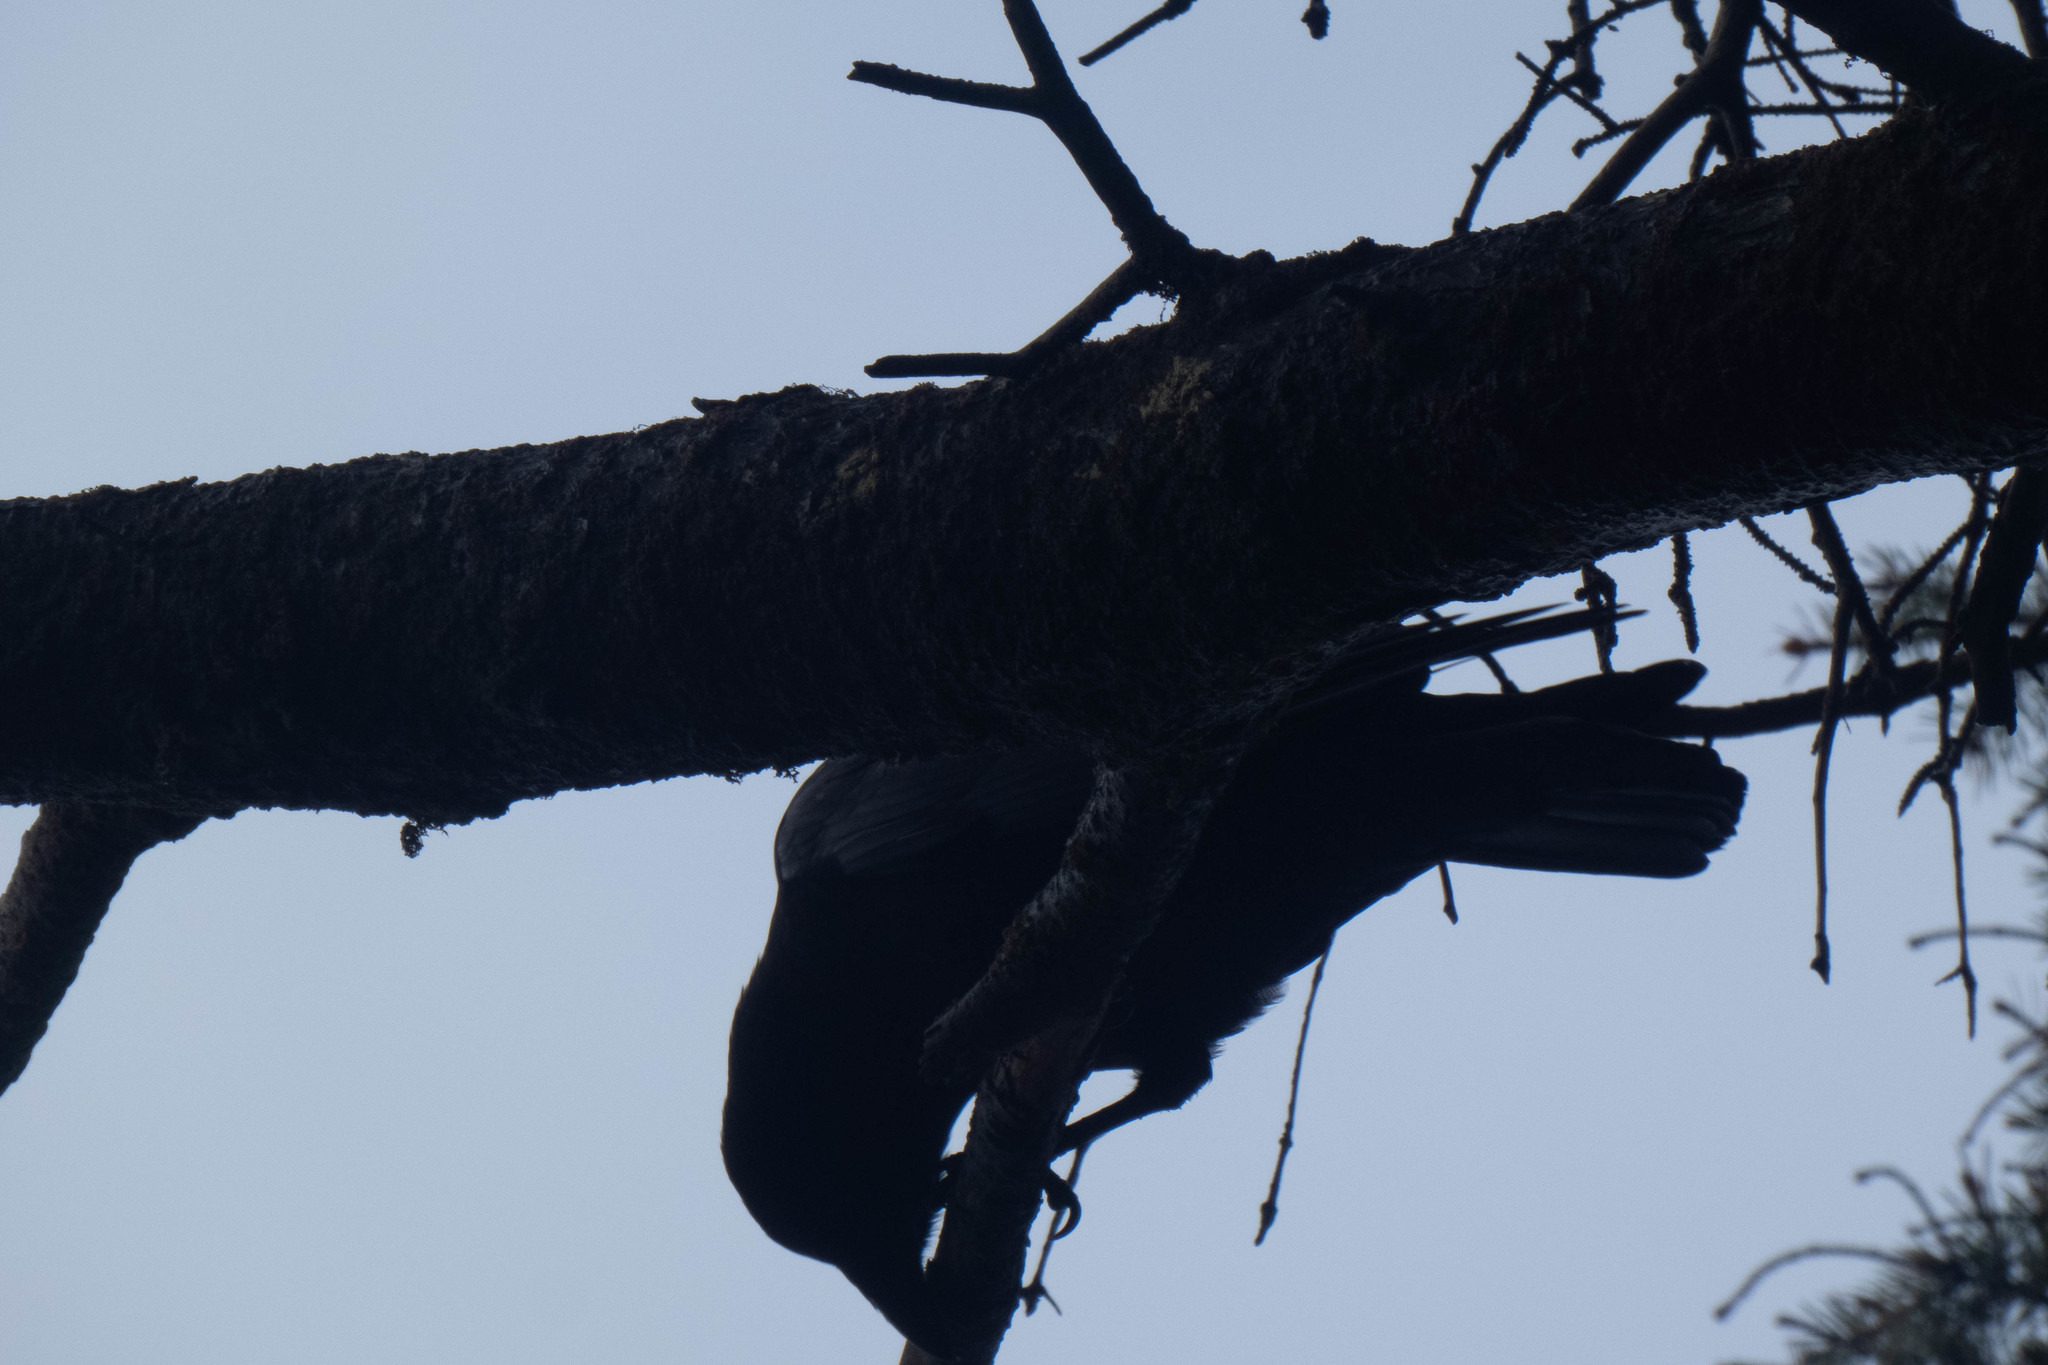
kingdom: Animalia
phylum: Chordata
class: Aves
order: Passeriformes
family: Corvidae
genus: Corvus
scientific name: Corvus brachyrhynchos
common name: American crow
